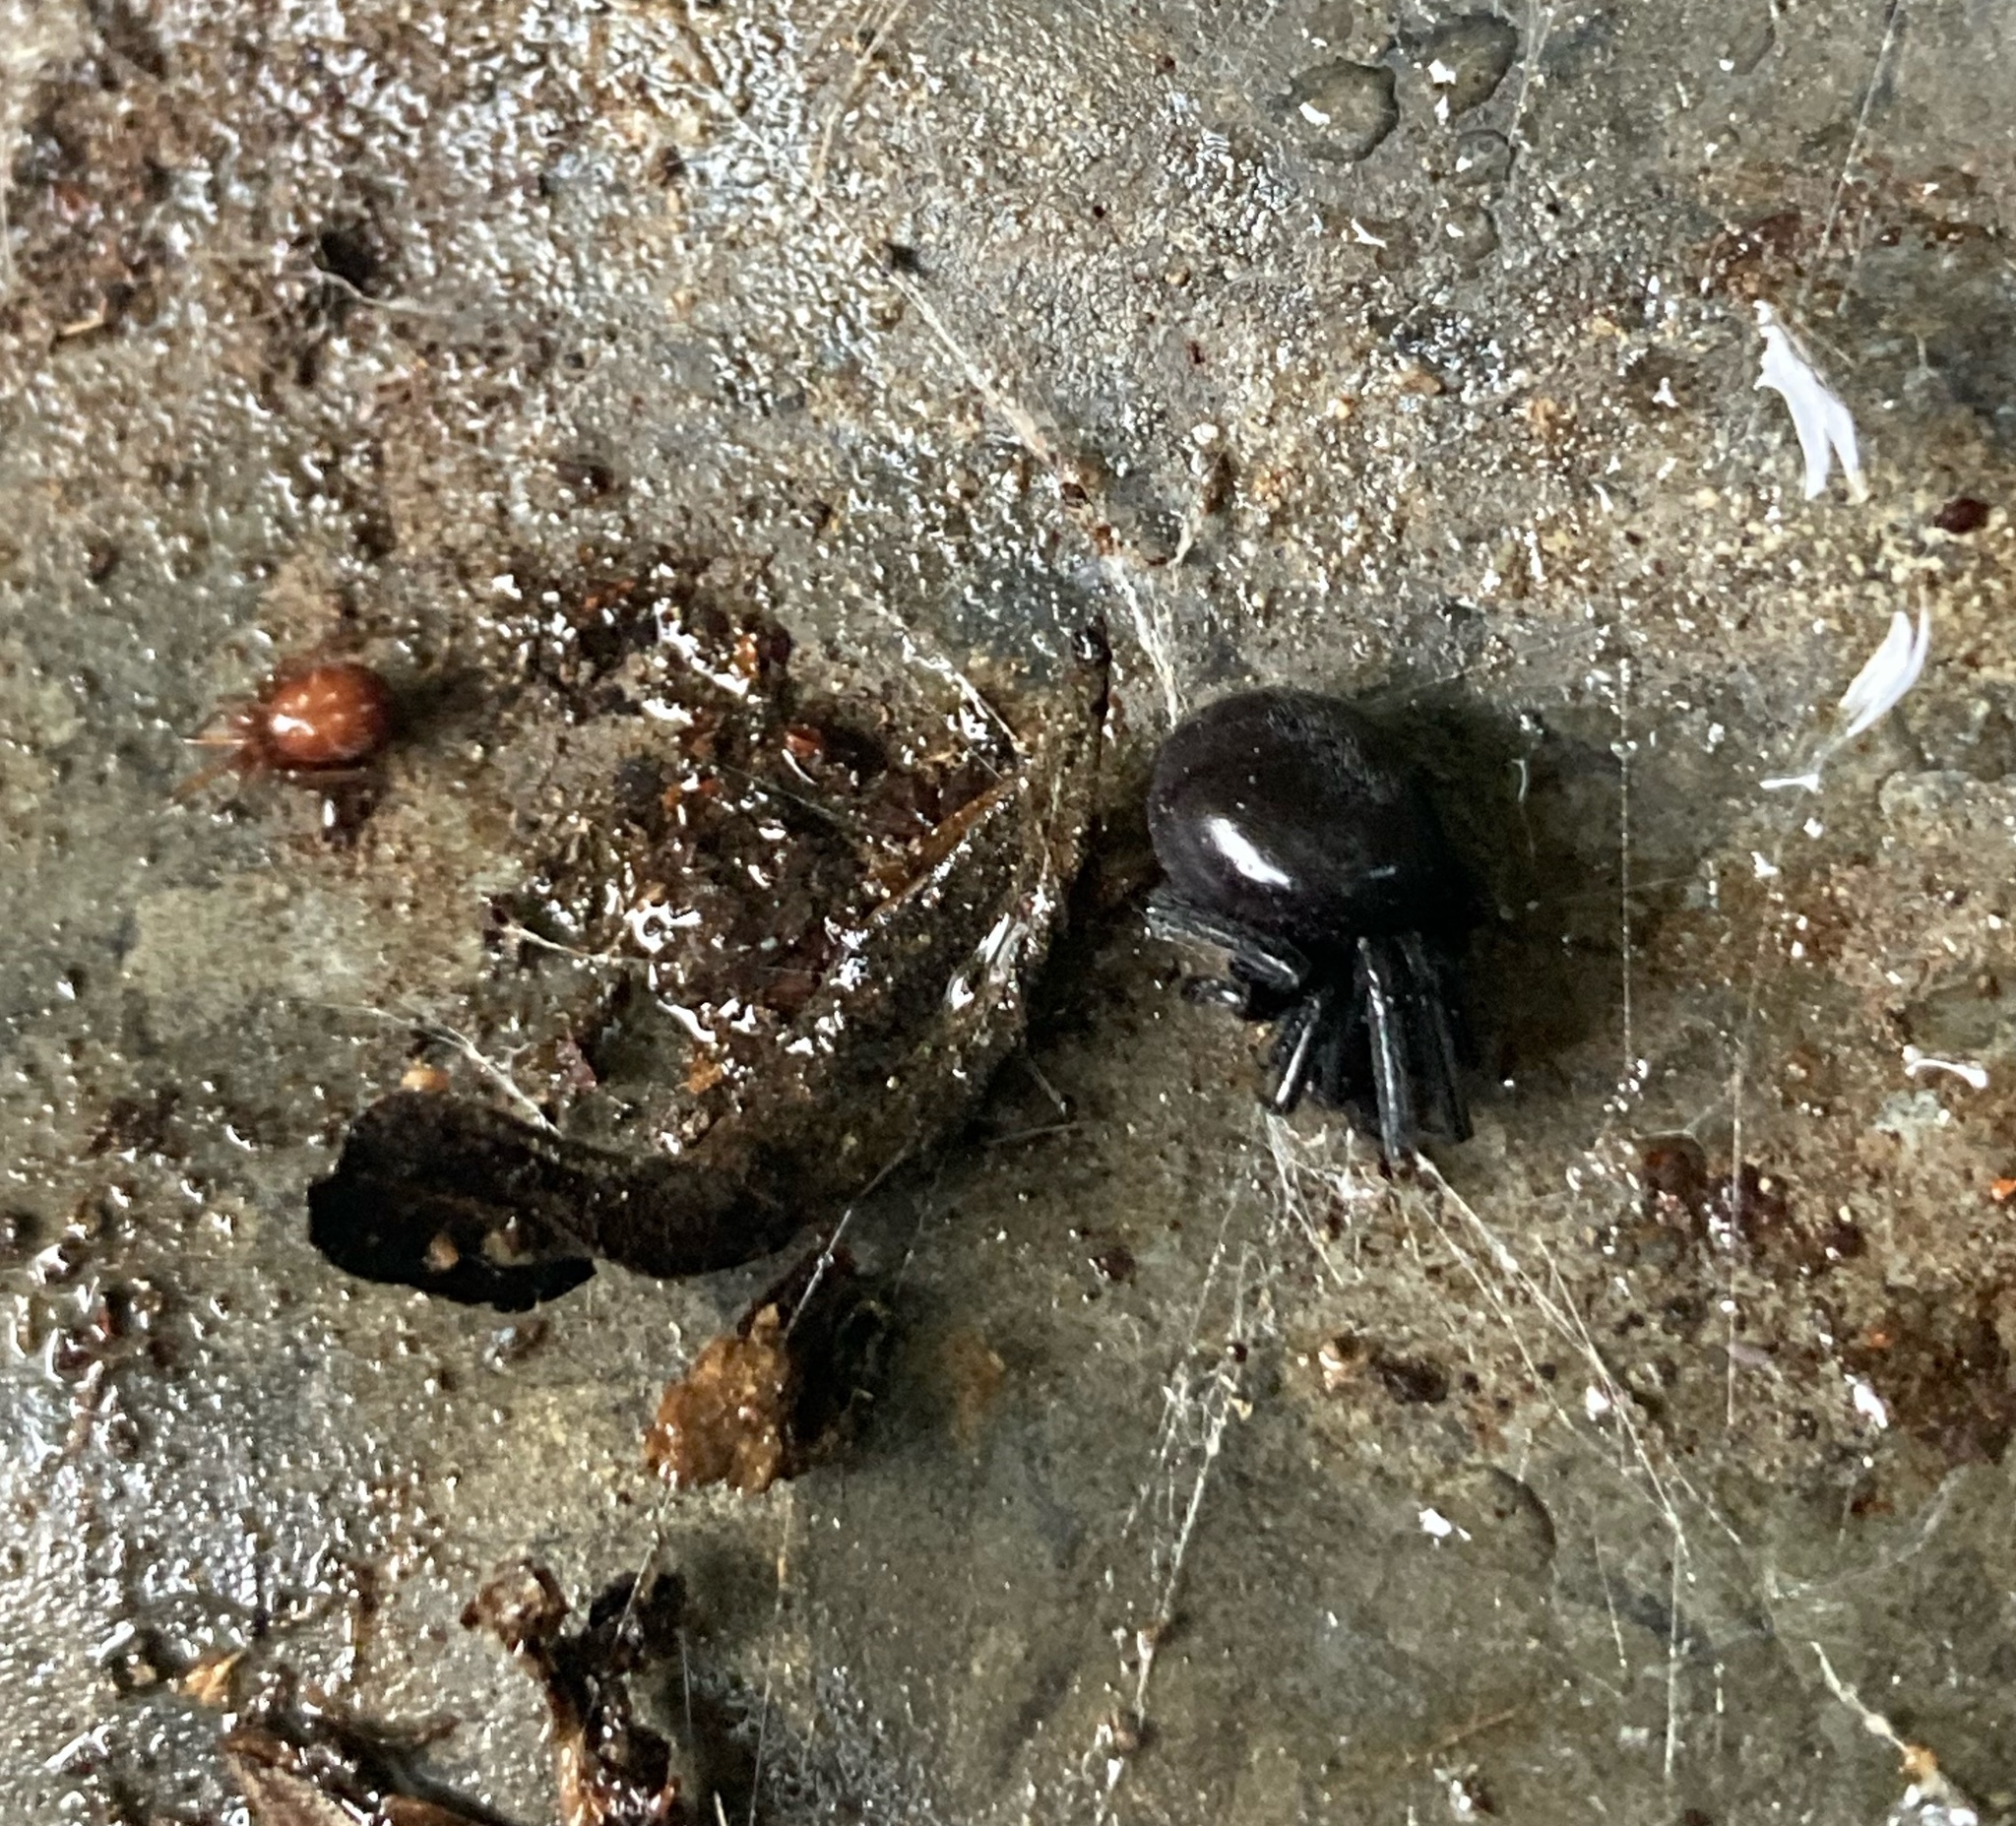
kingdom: Animalia
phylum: Arthropoda
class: Arachnida
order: Araneae
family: Theridiidae
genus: Steatoda
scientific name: Steatoda capensis
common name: Cobweb weaver
